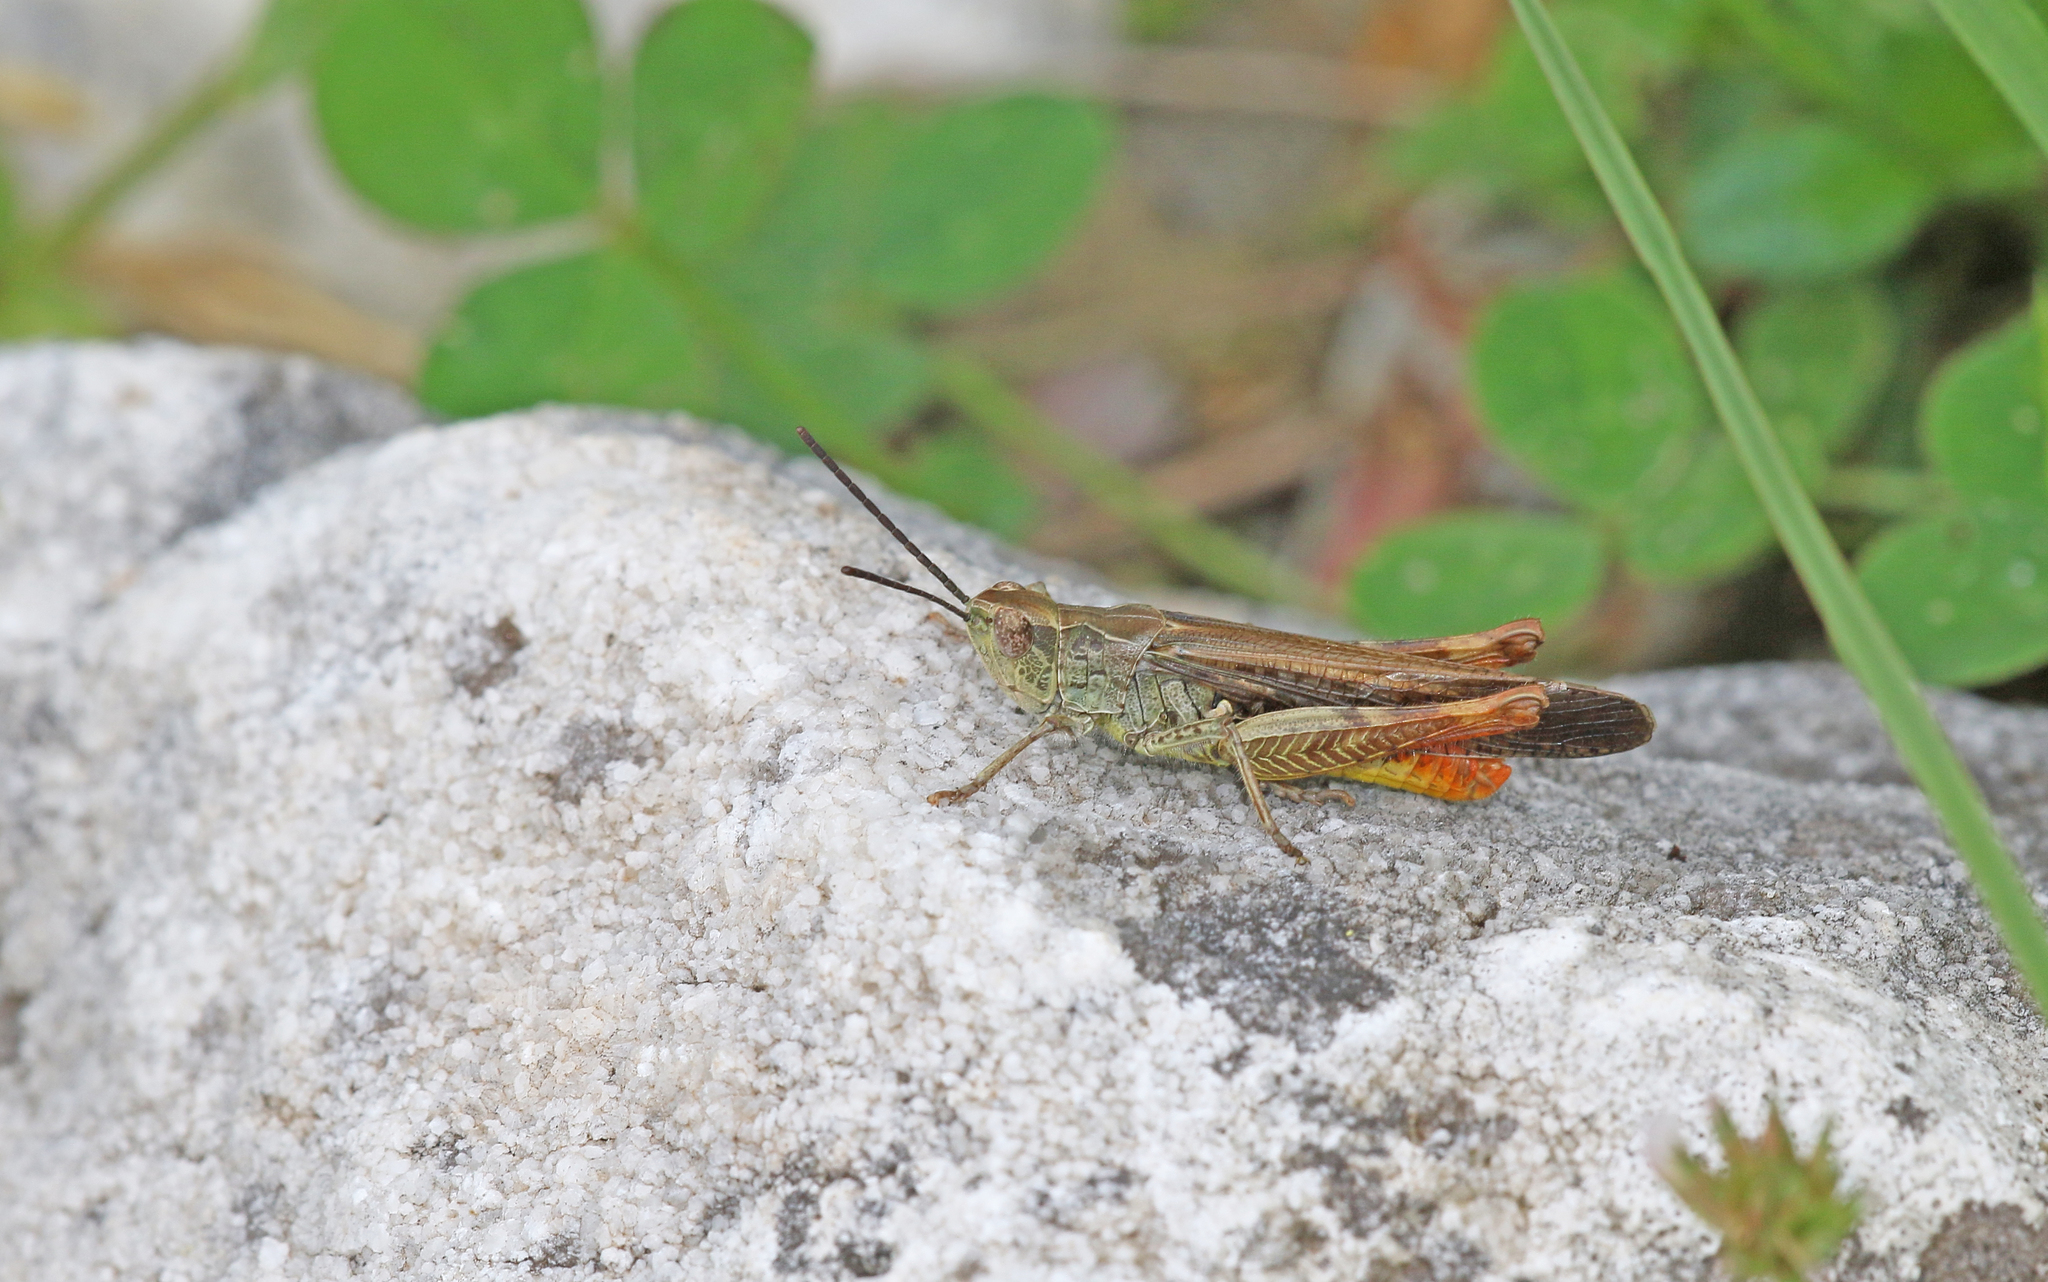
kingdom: Animalia
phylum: Arthropoda
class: Insecta
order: Orthoptera
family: Acrididae
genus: Chorthippus
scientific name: Chorthippus maritimus
